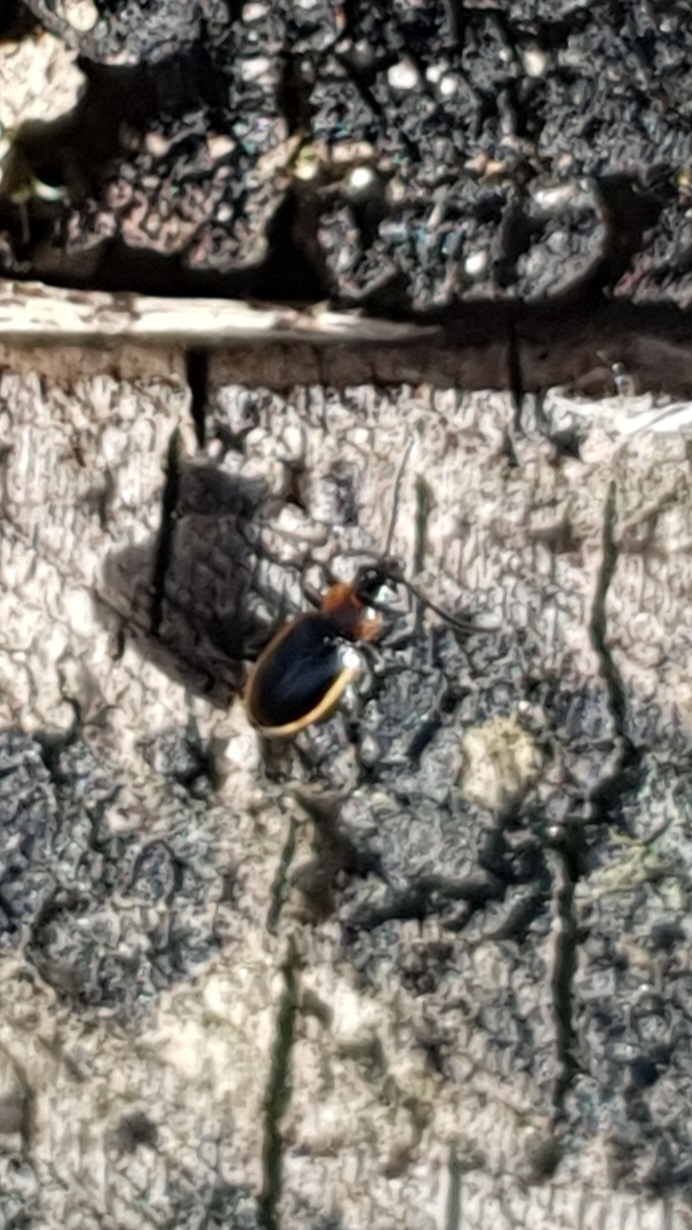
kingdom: Animalia
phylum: Arthropoda
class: Insecta
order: Coleoptera
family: Chrysomelidae
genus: Longitarsus
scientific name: Longitarsus dorsalis
